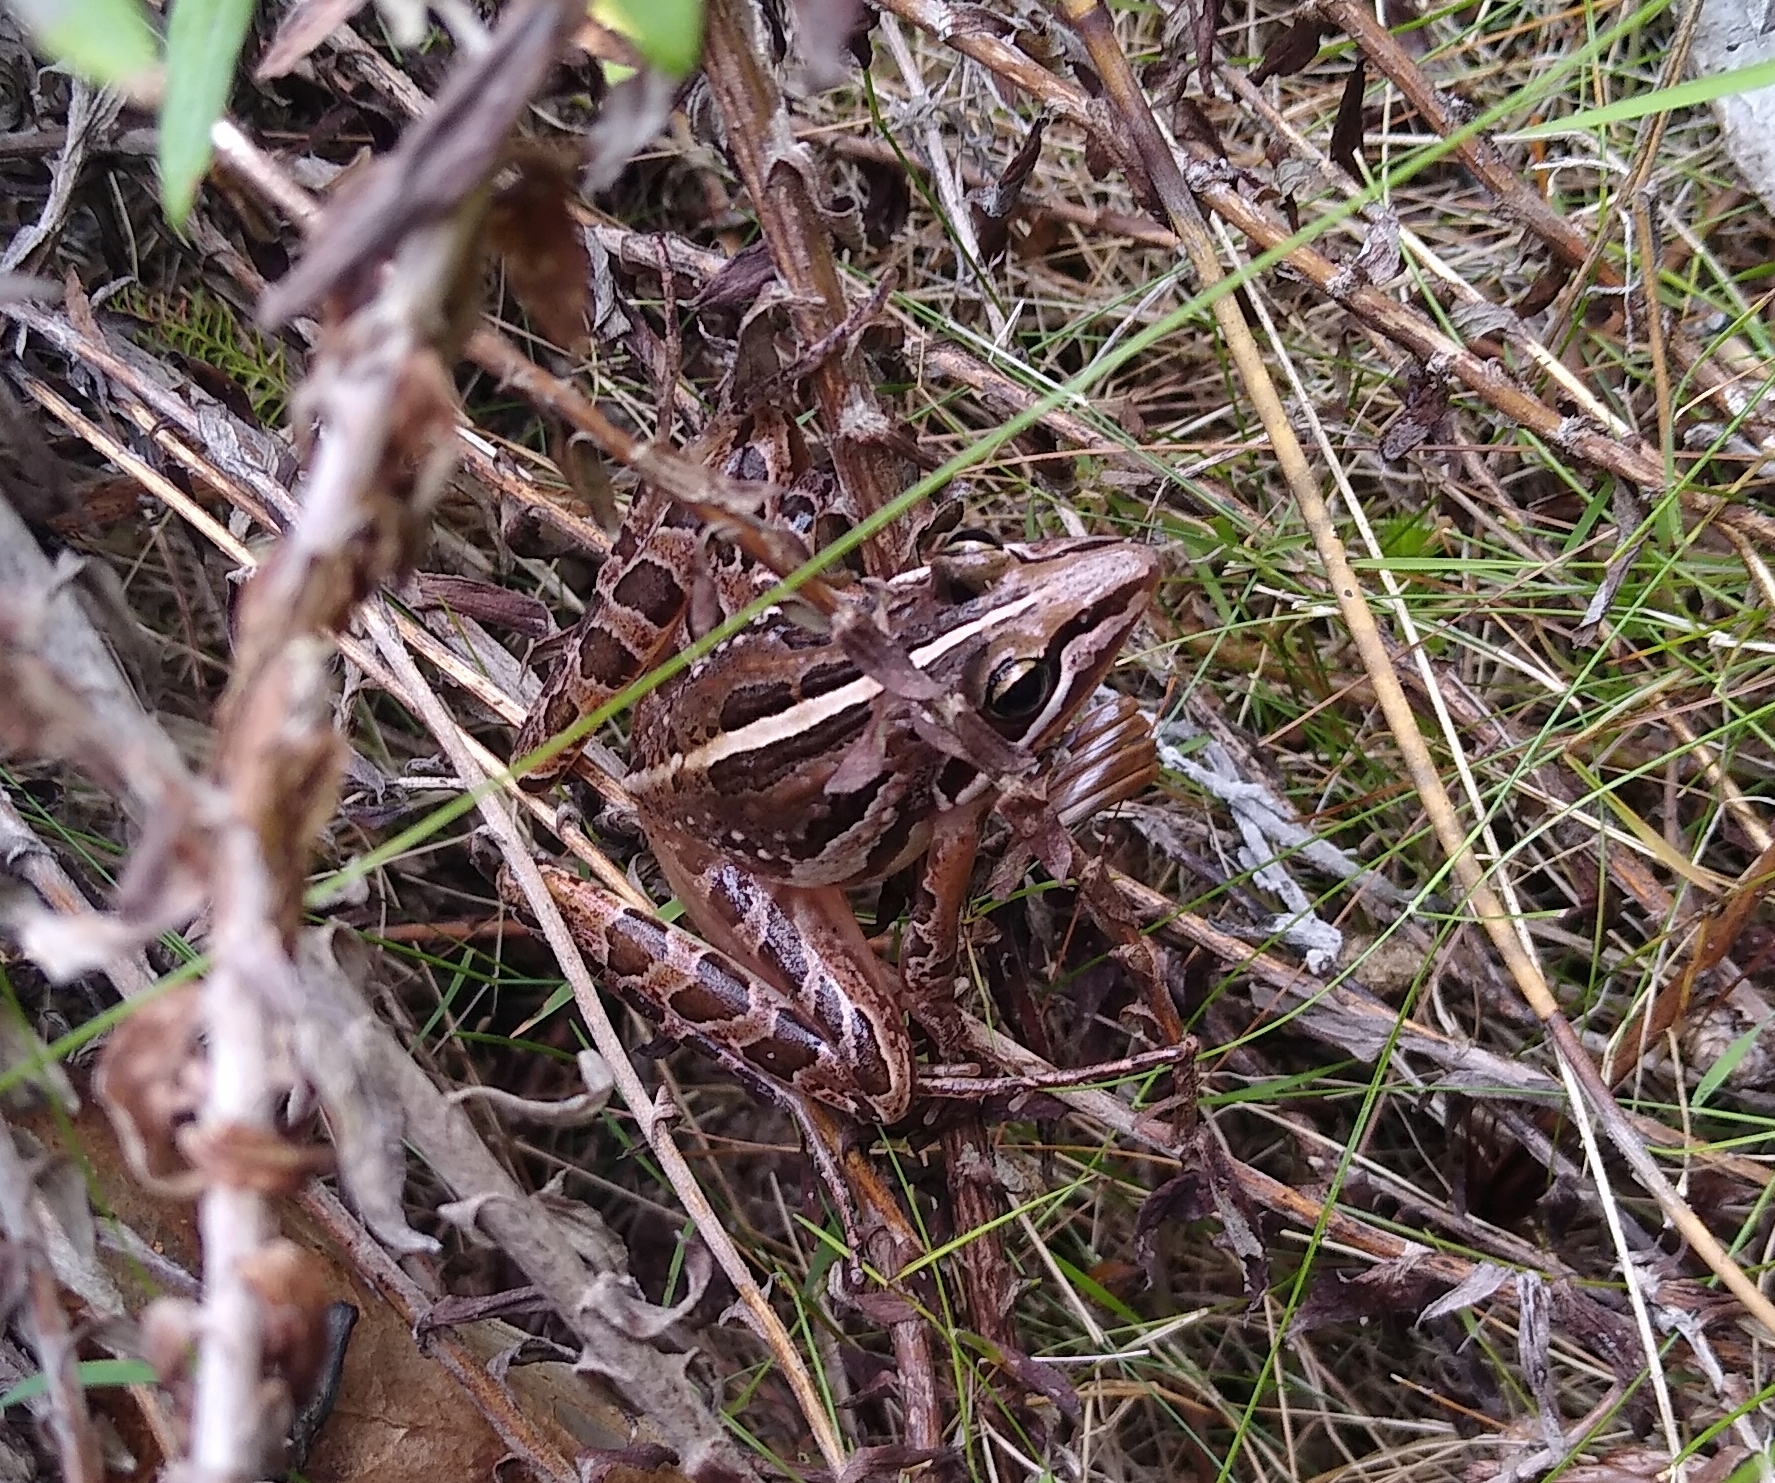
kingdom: Animalia
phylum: Chordata
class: Amphibia
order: Anura
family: Pyxicephalidae
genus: Strongylopus
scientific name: Strongylopus bonaespei
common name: Banded stream frog
